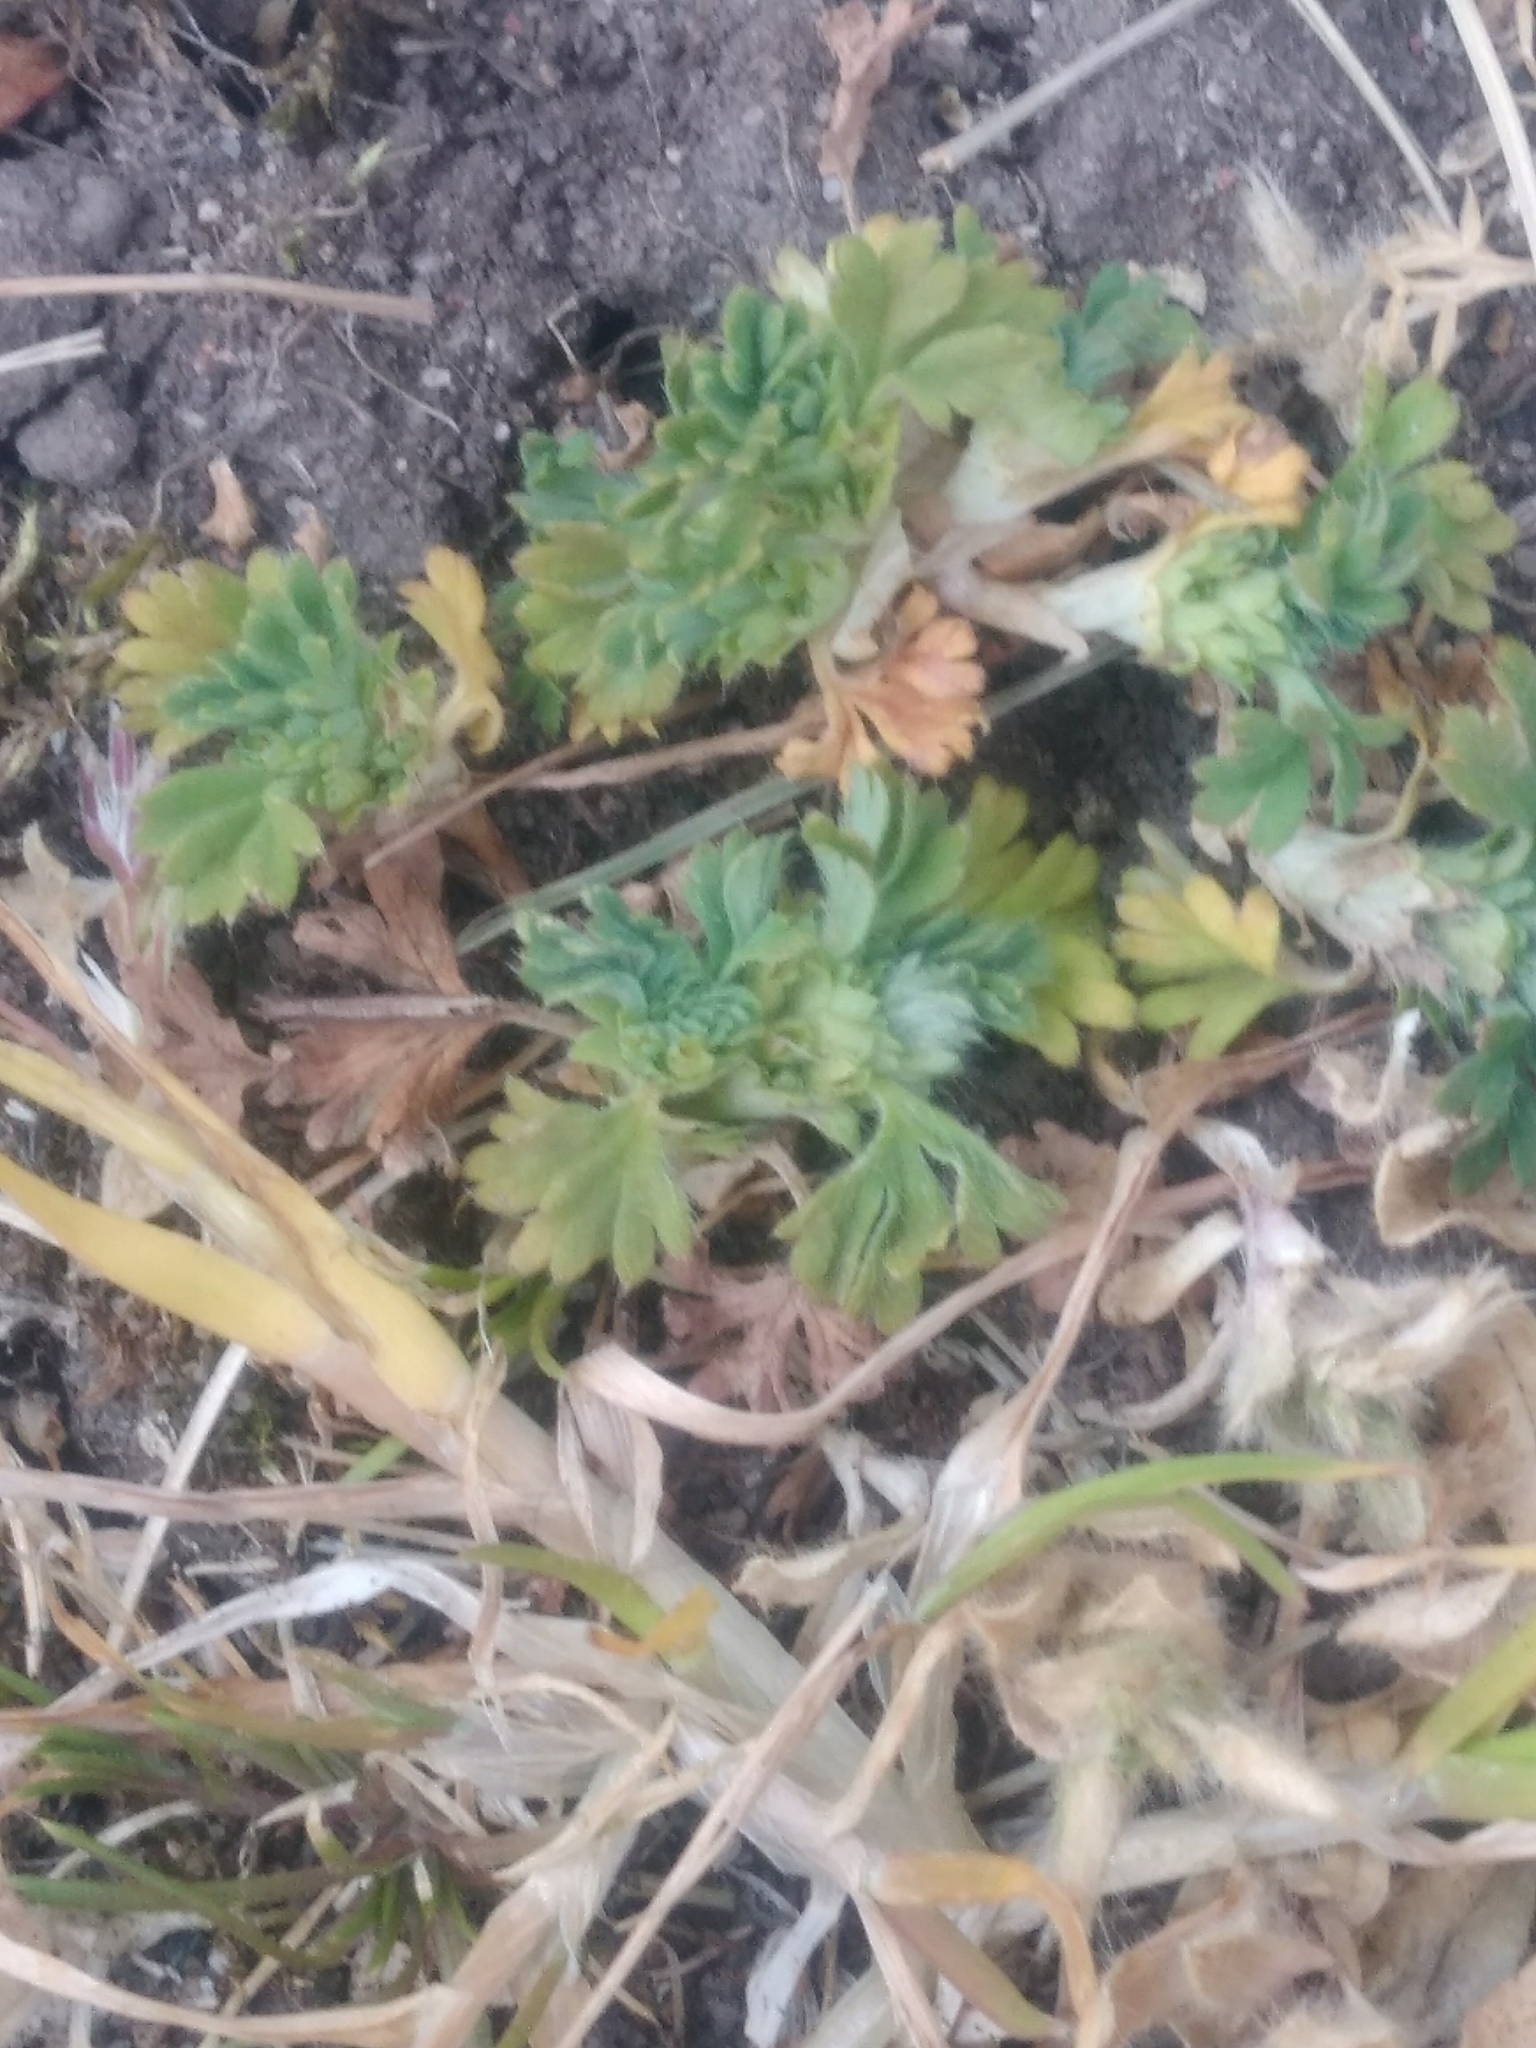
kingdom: Plantae
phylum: Tracheophyta
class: Magnoliopsida
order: Rosales
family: Rosaceae
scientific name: Rosaceae
